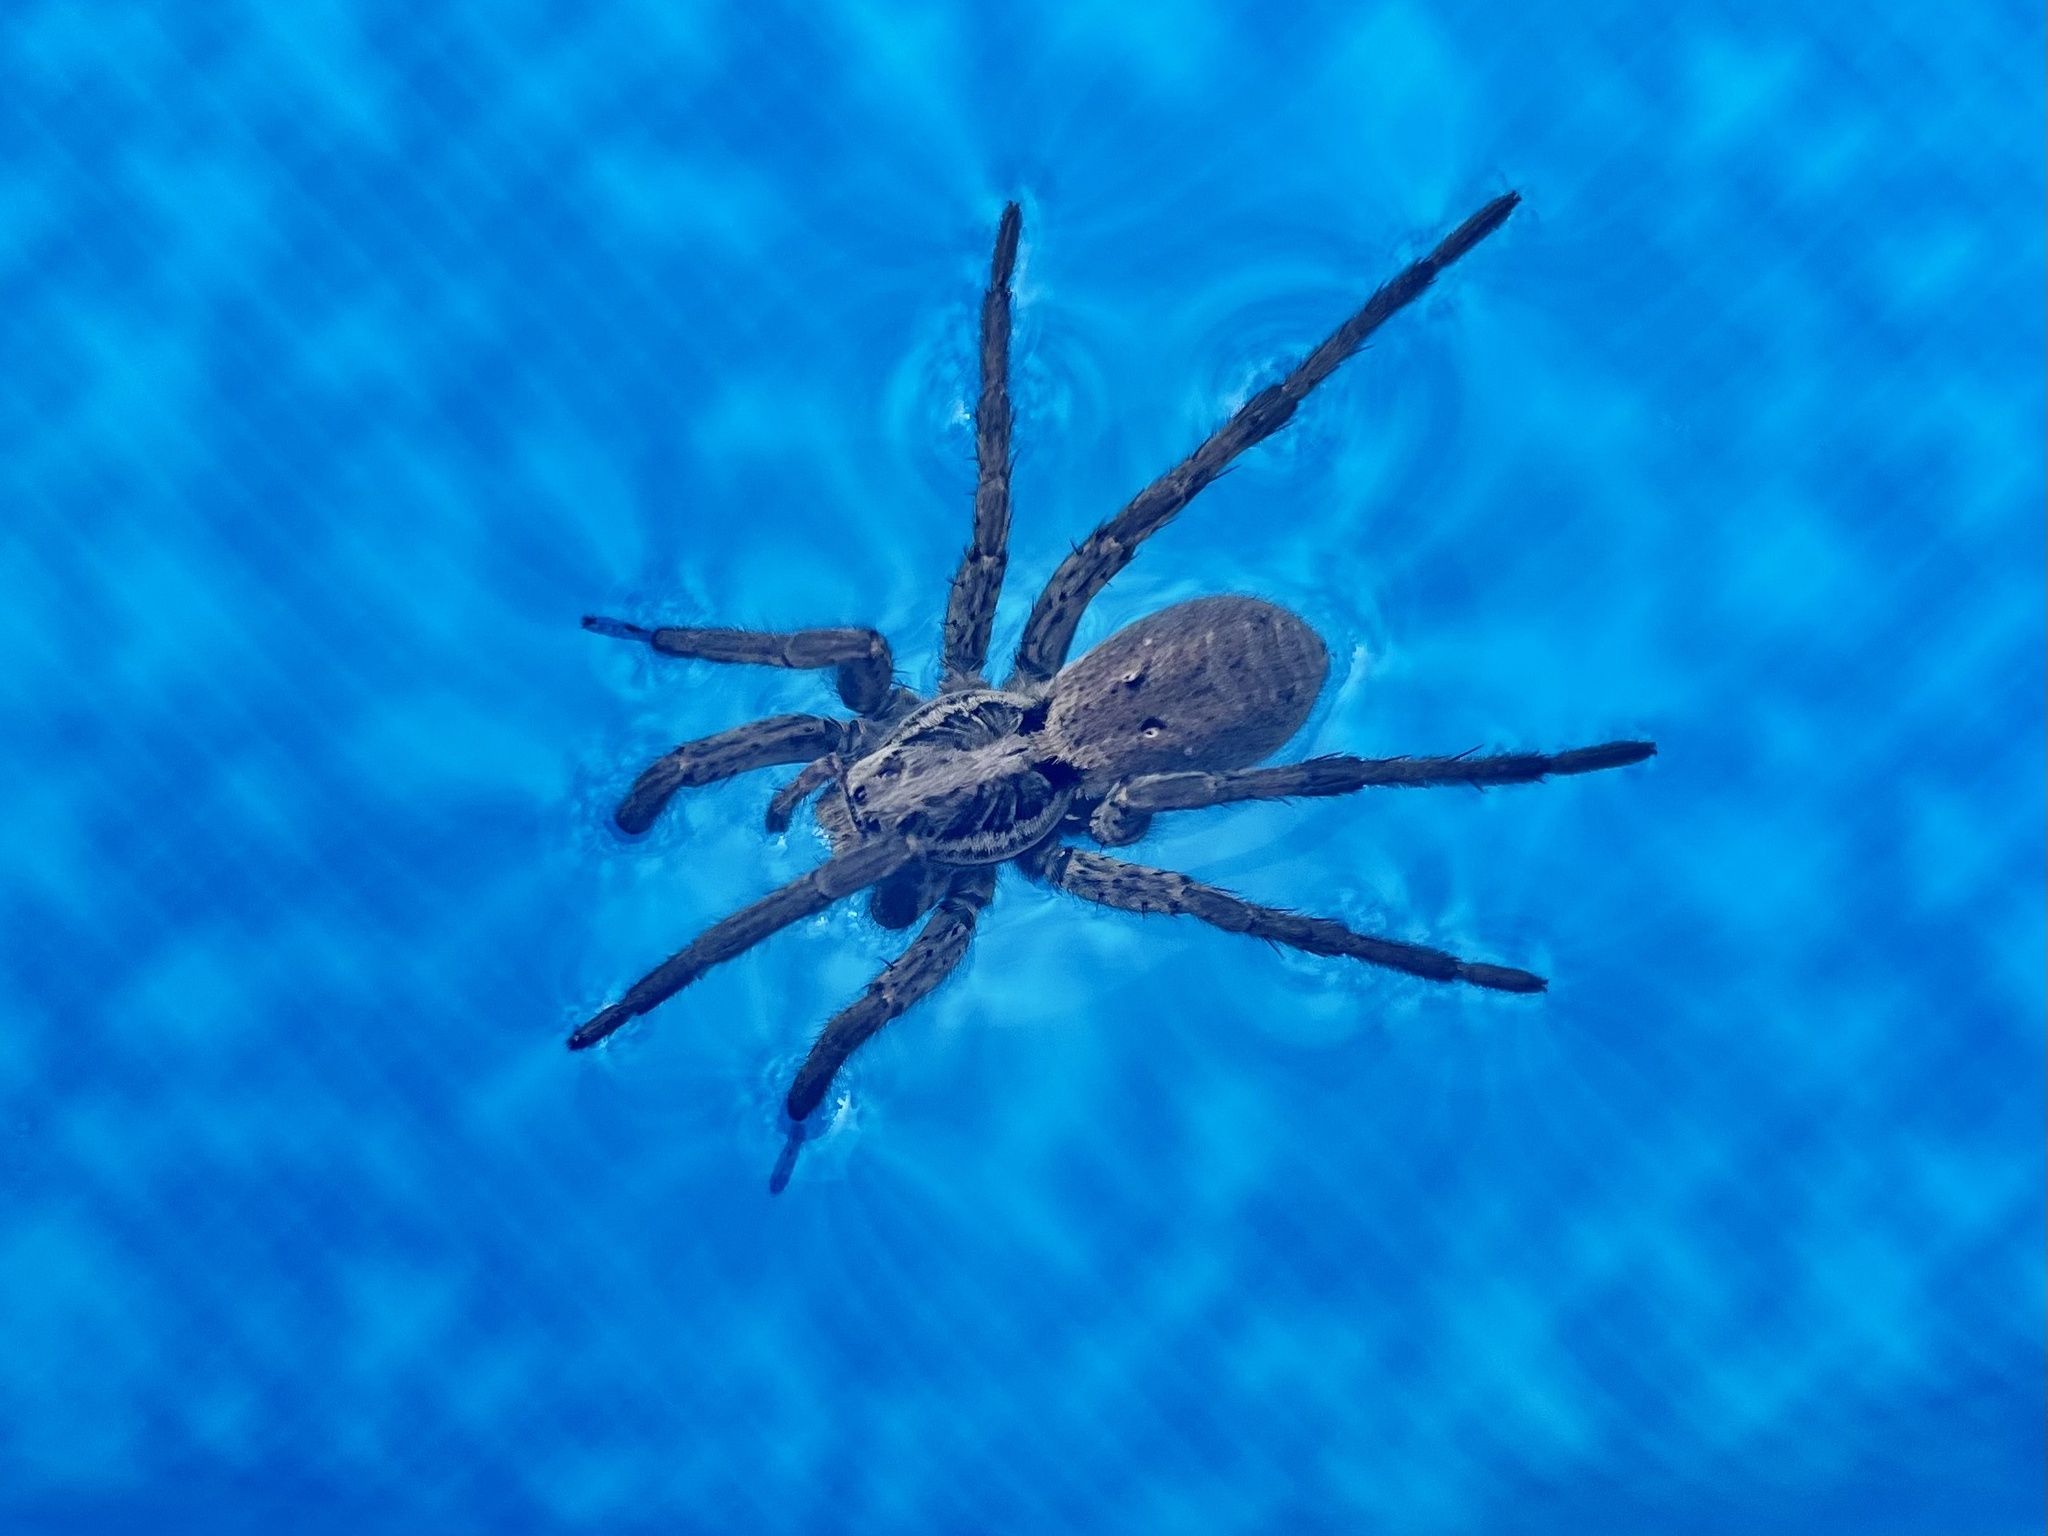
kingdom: Animalia
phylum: Arthropoda
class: Arachnida
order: Araneae
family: Lycosidae
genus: Hogna
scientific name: Hogna radiata
